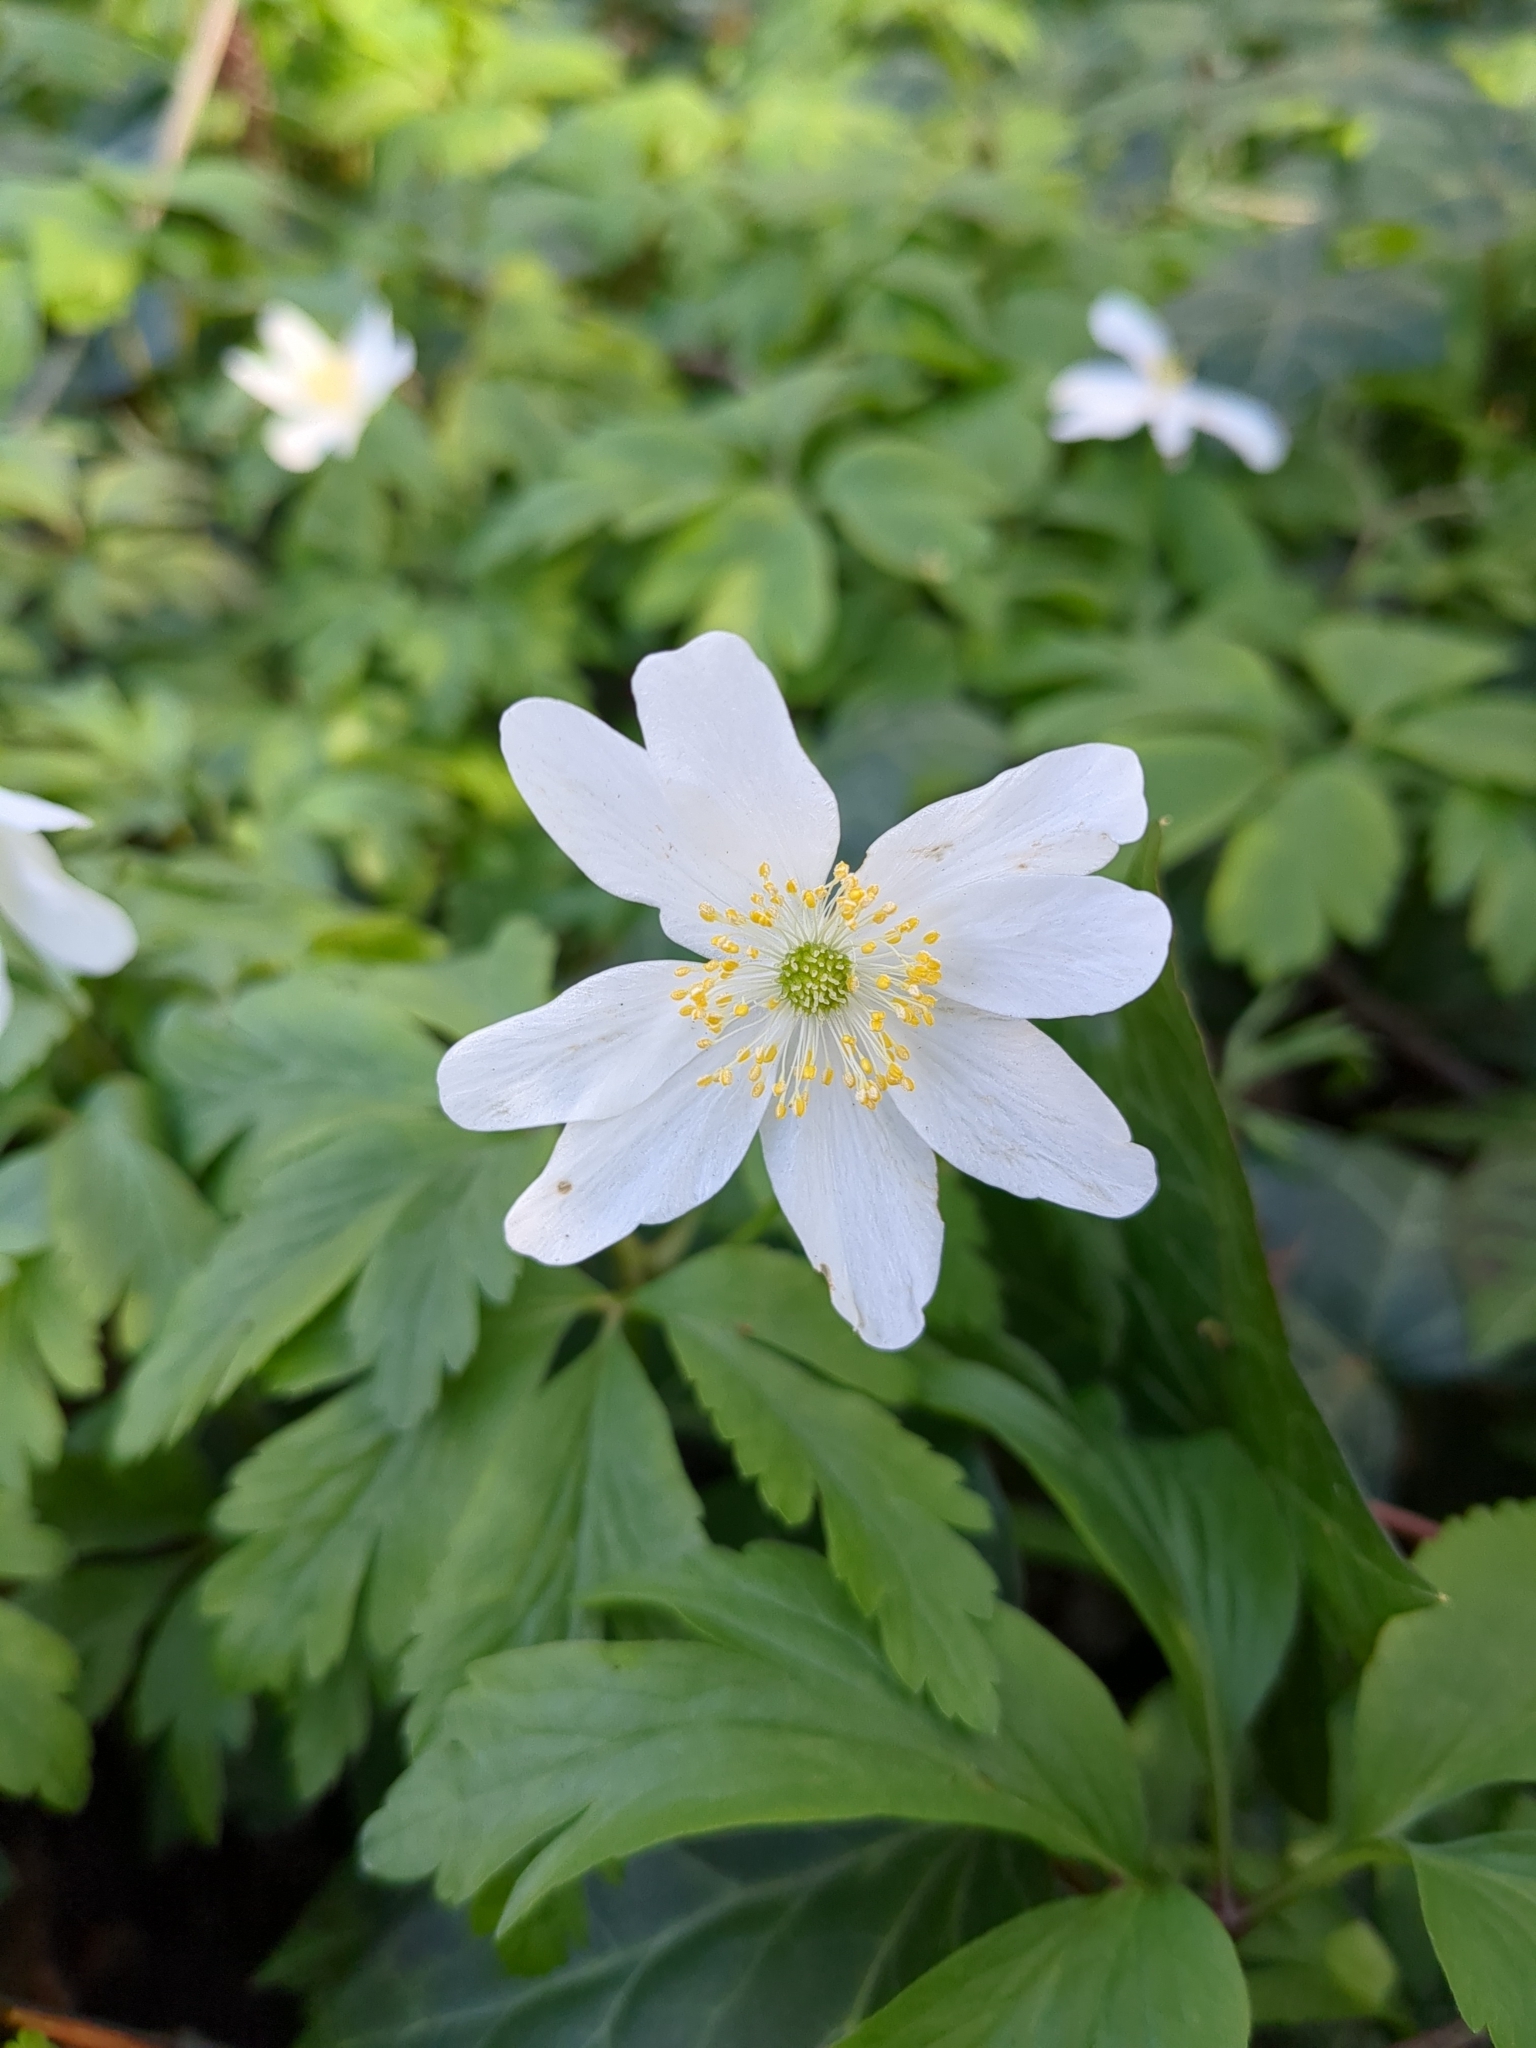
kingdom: Plantae
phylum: Tracheophyta
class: Magnoliopsida
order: Ranunculales
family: Ranunculaceae
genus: Anemone
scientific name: Anemone nemorosa
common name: Wood anemone
